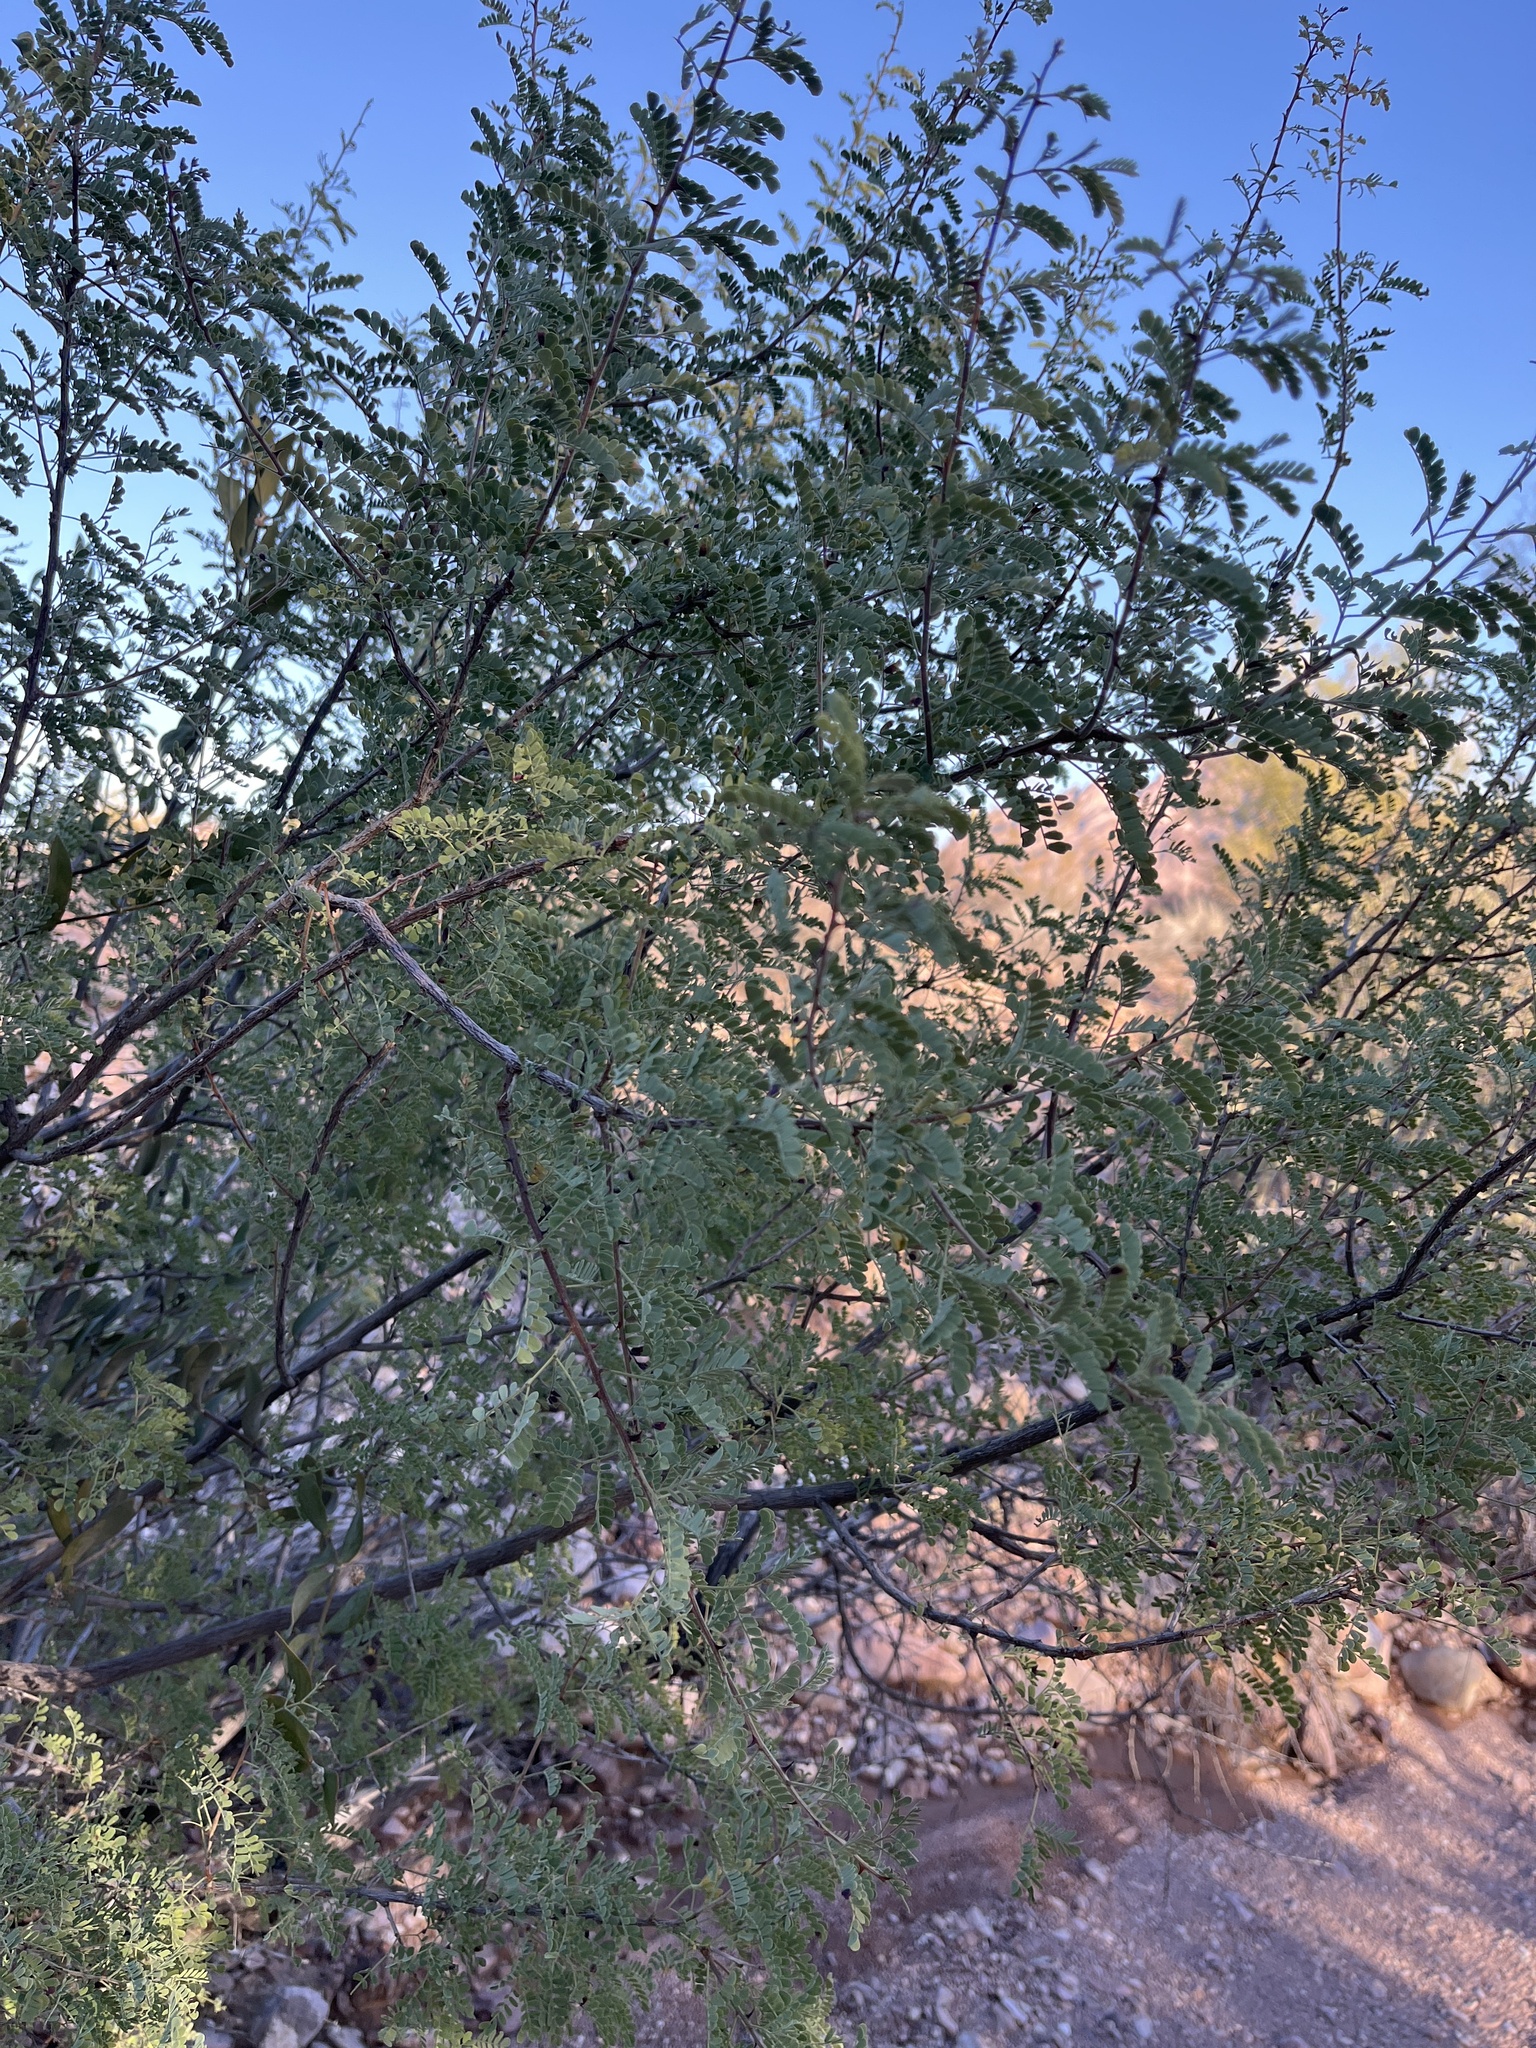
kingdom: Plantae
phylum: Tracheophyta
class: Magnoliopsida
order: Fabales
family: Fabaceae
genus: Senegalia
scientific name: Senegalia greggii
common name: Texas-mimosa
